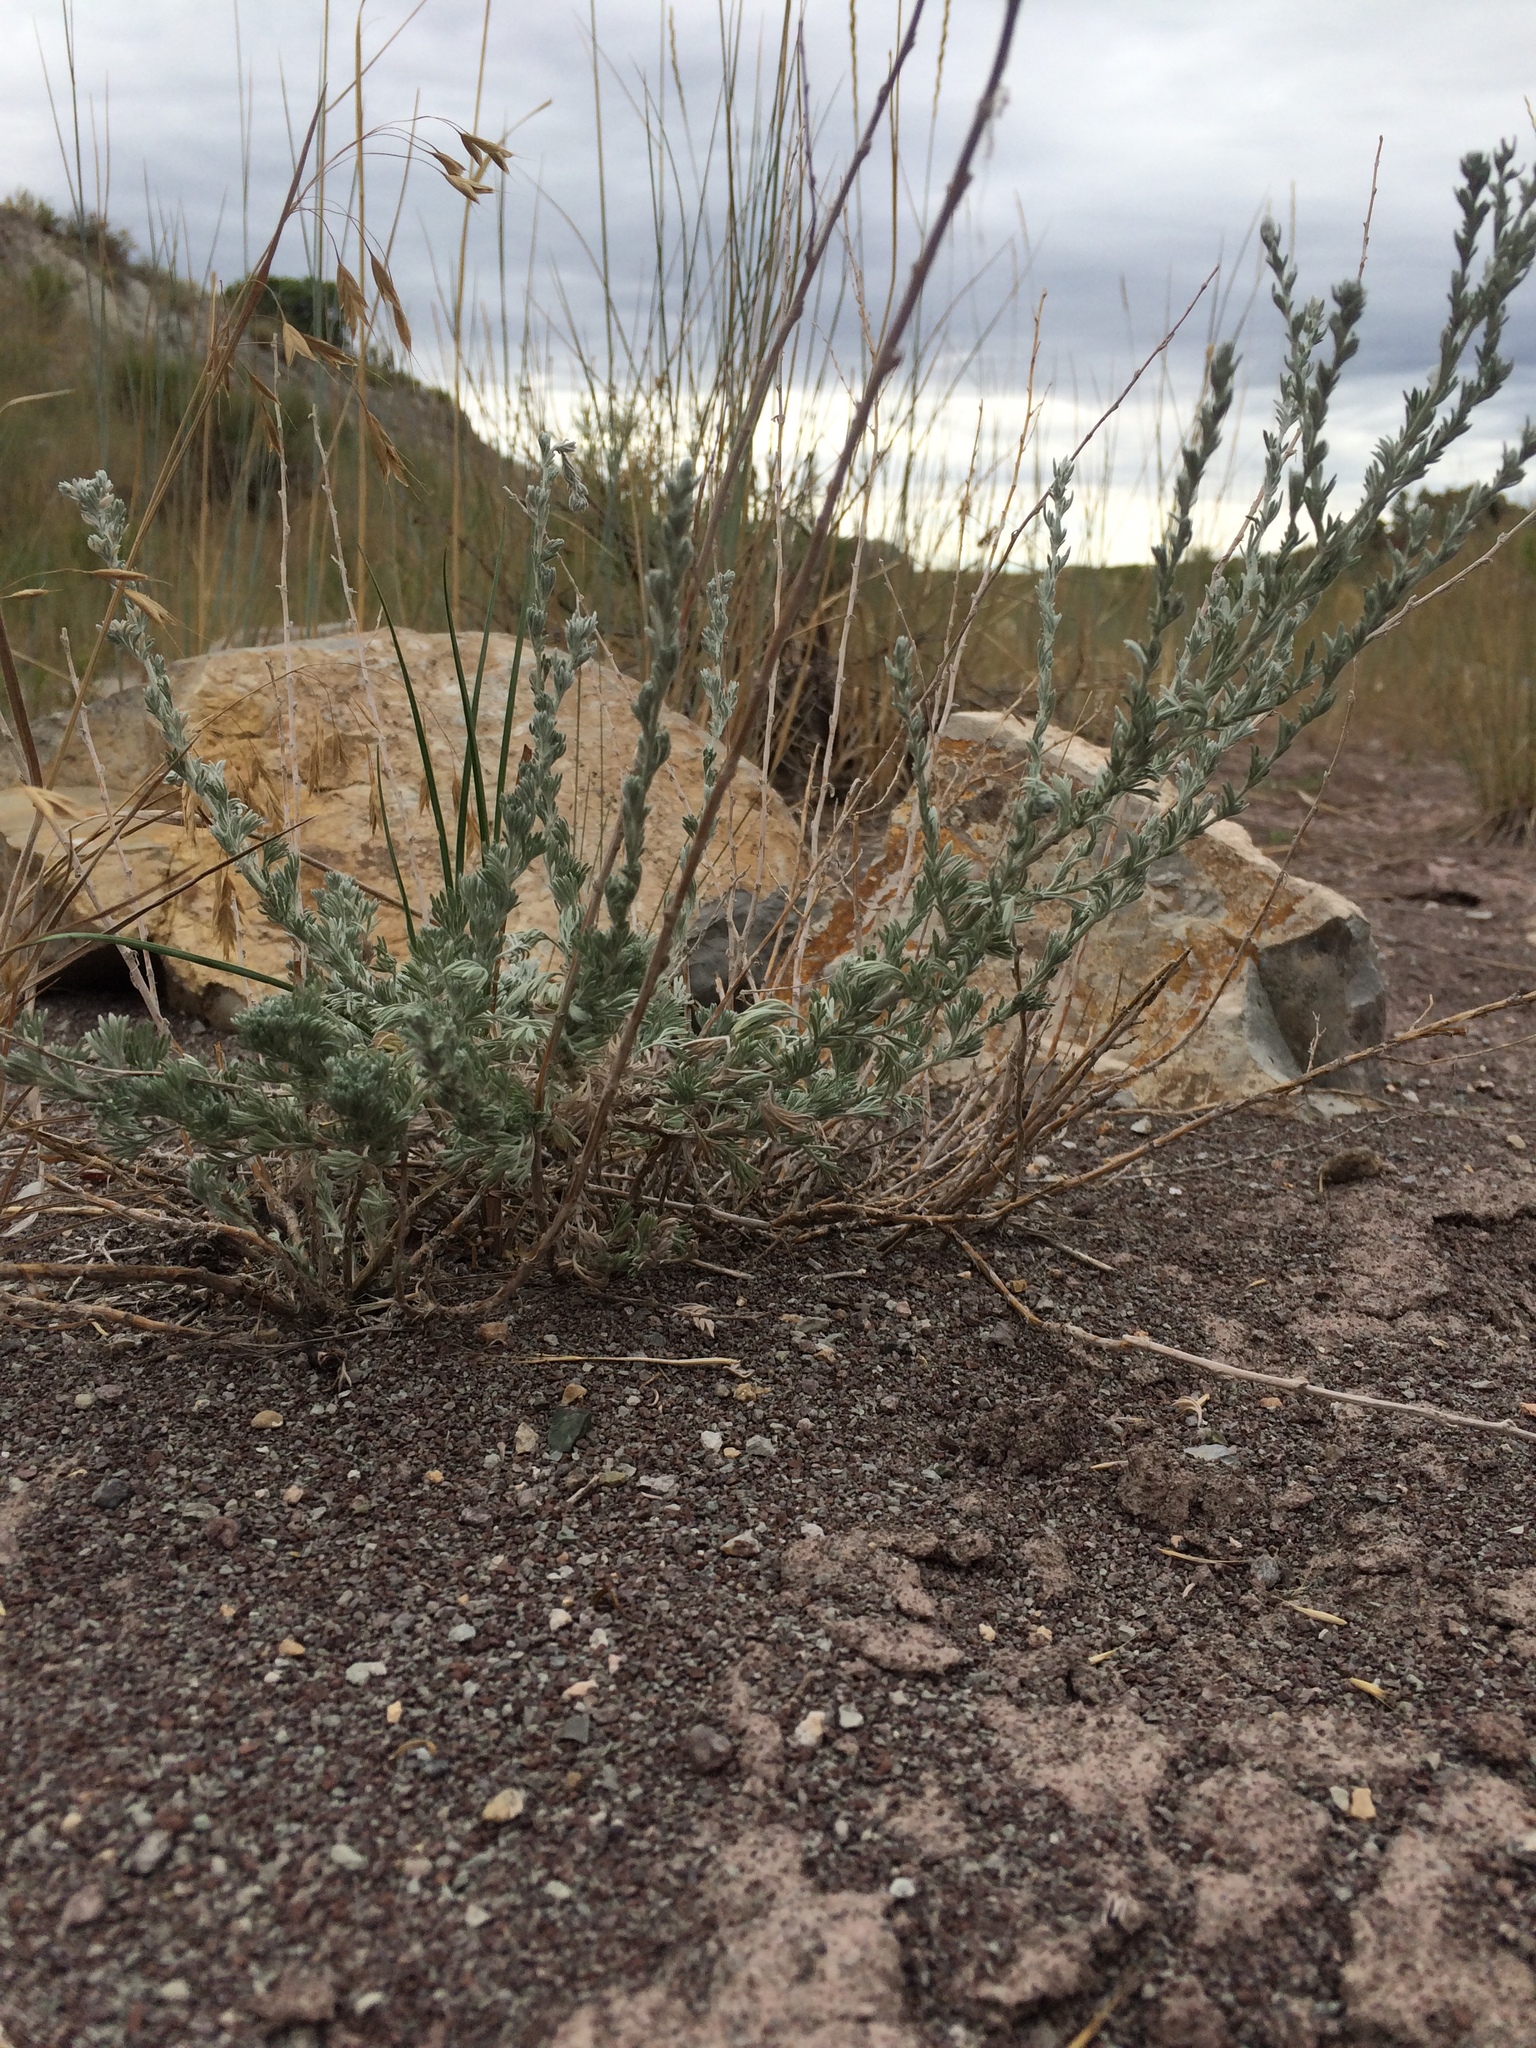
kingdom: Plantae
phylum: Tracheophyta
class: Magnoliopsida
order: Asterales
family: Asteraceae
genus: Artemisia
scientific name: Artemisia frigida
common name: Prairie sagewort
